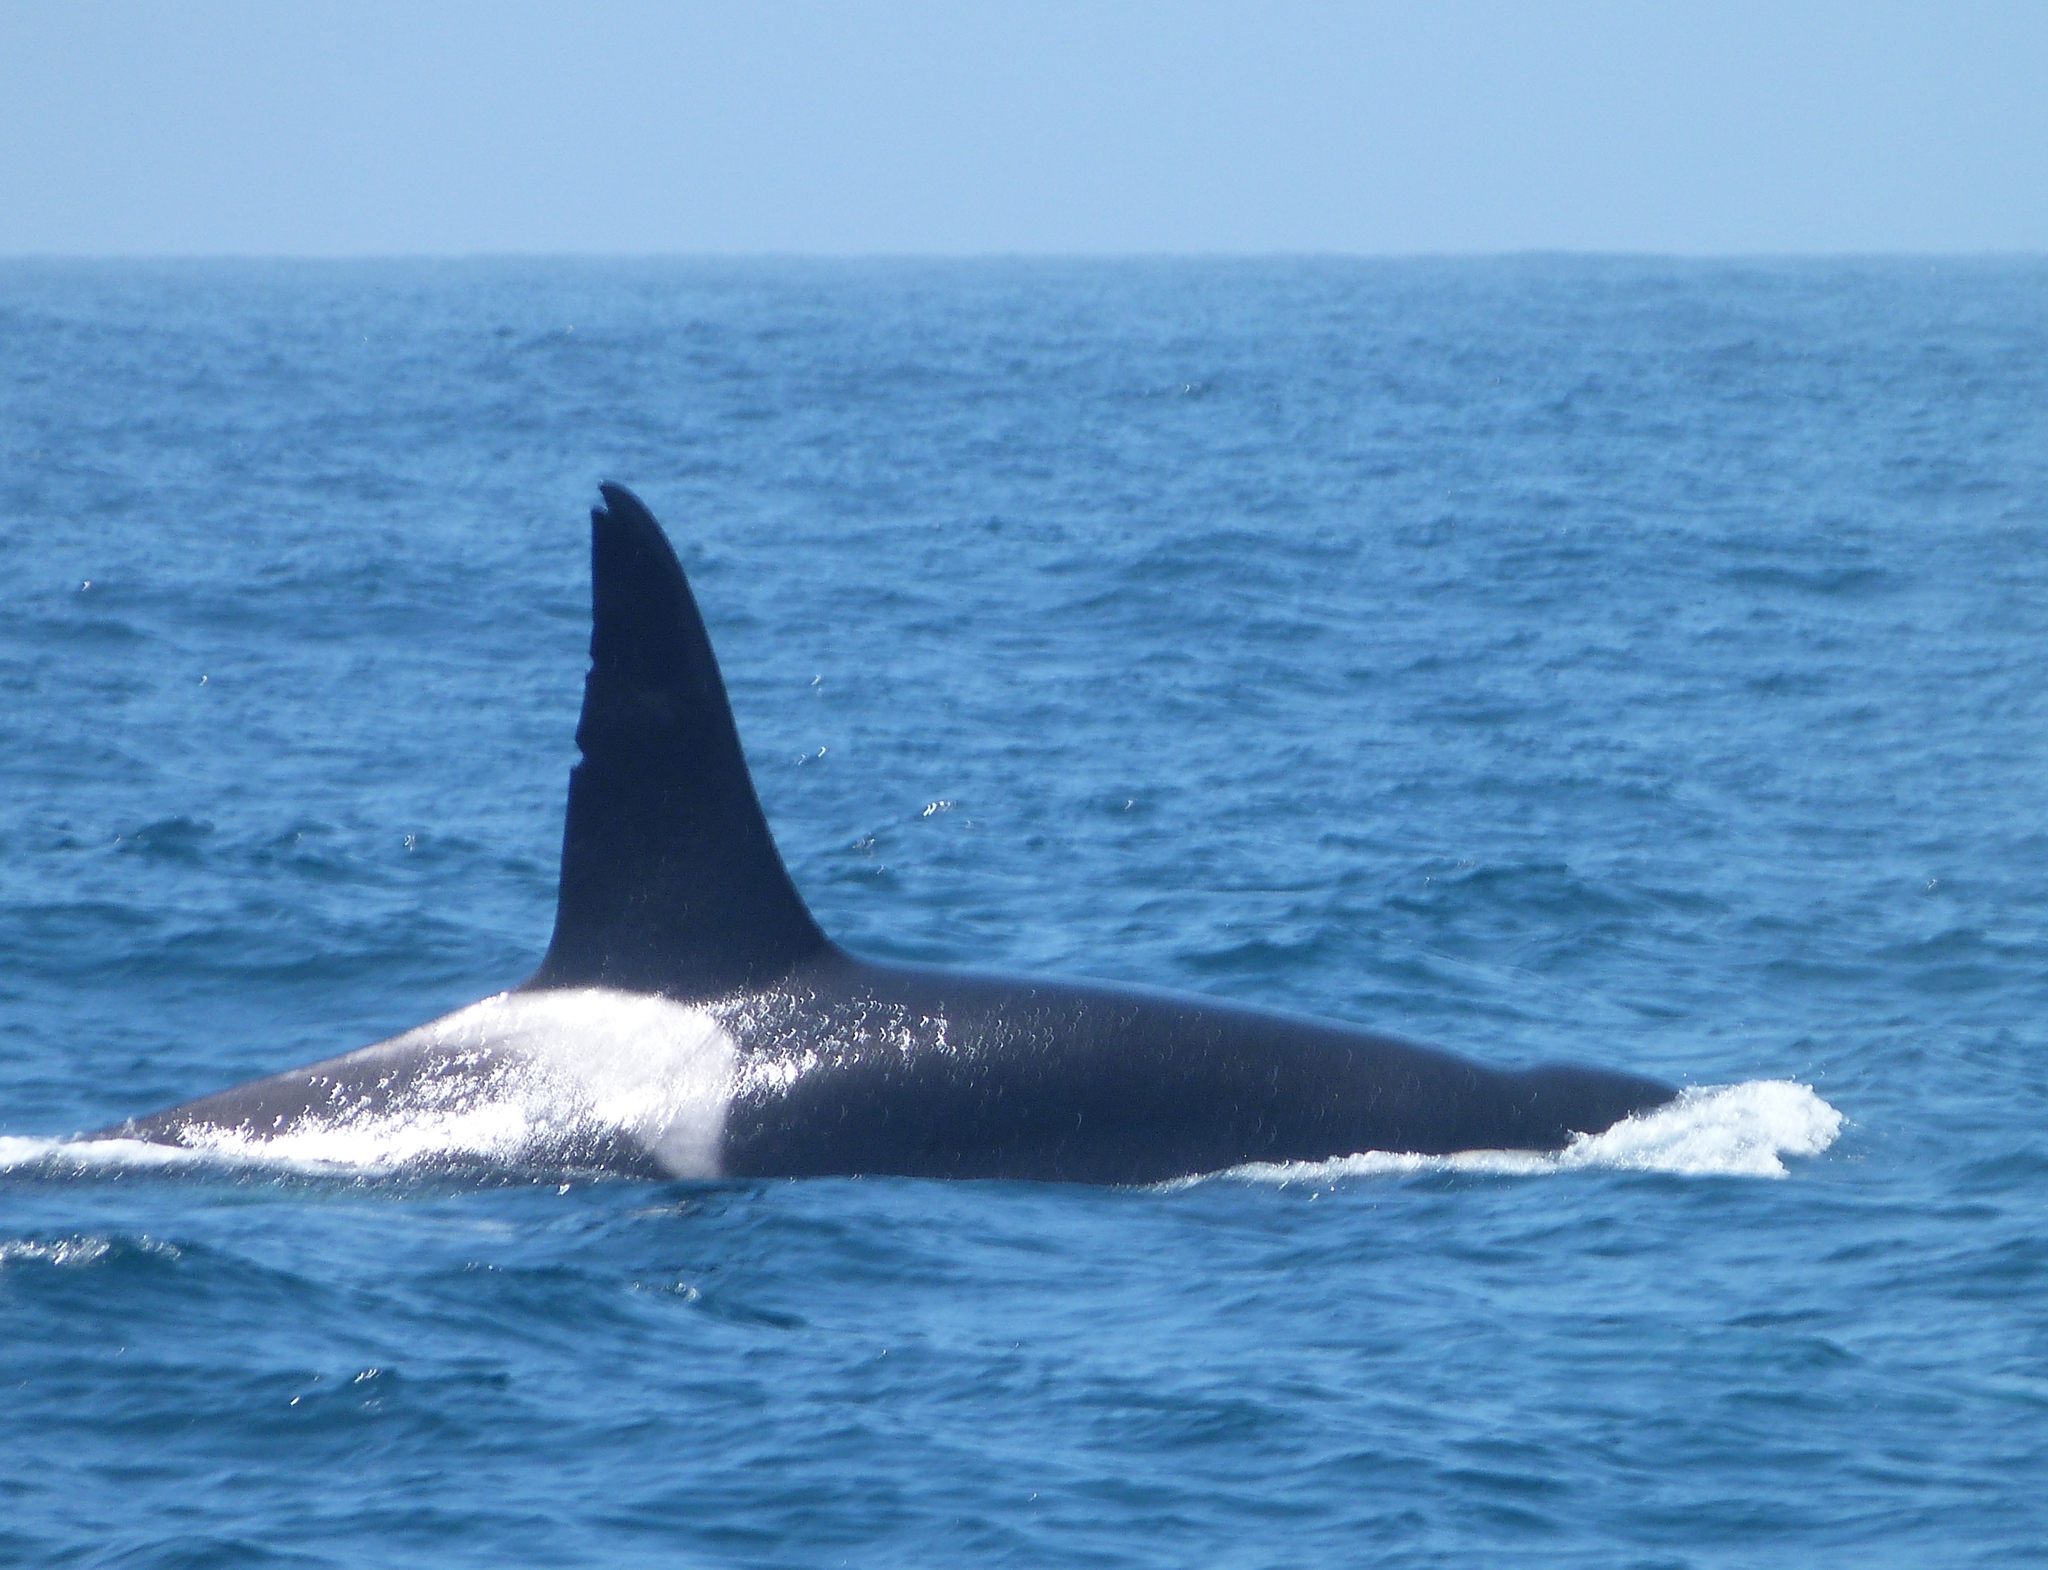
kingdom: Animalia
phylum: Chordata
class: Mammalia
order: Cetacea
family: Delphinidae
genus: Orcinus
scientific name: Orcinus orca
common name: Killer whale
